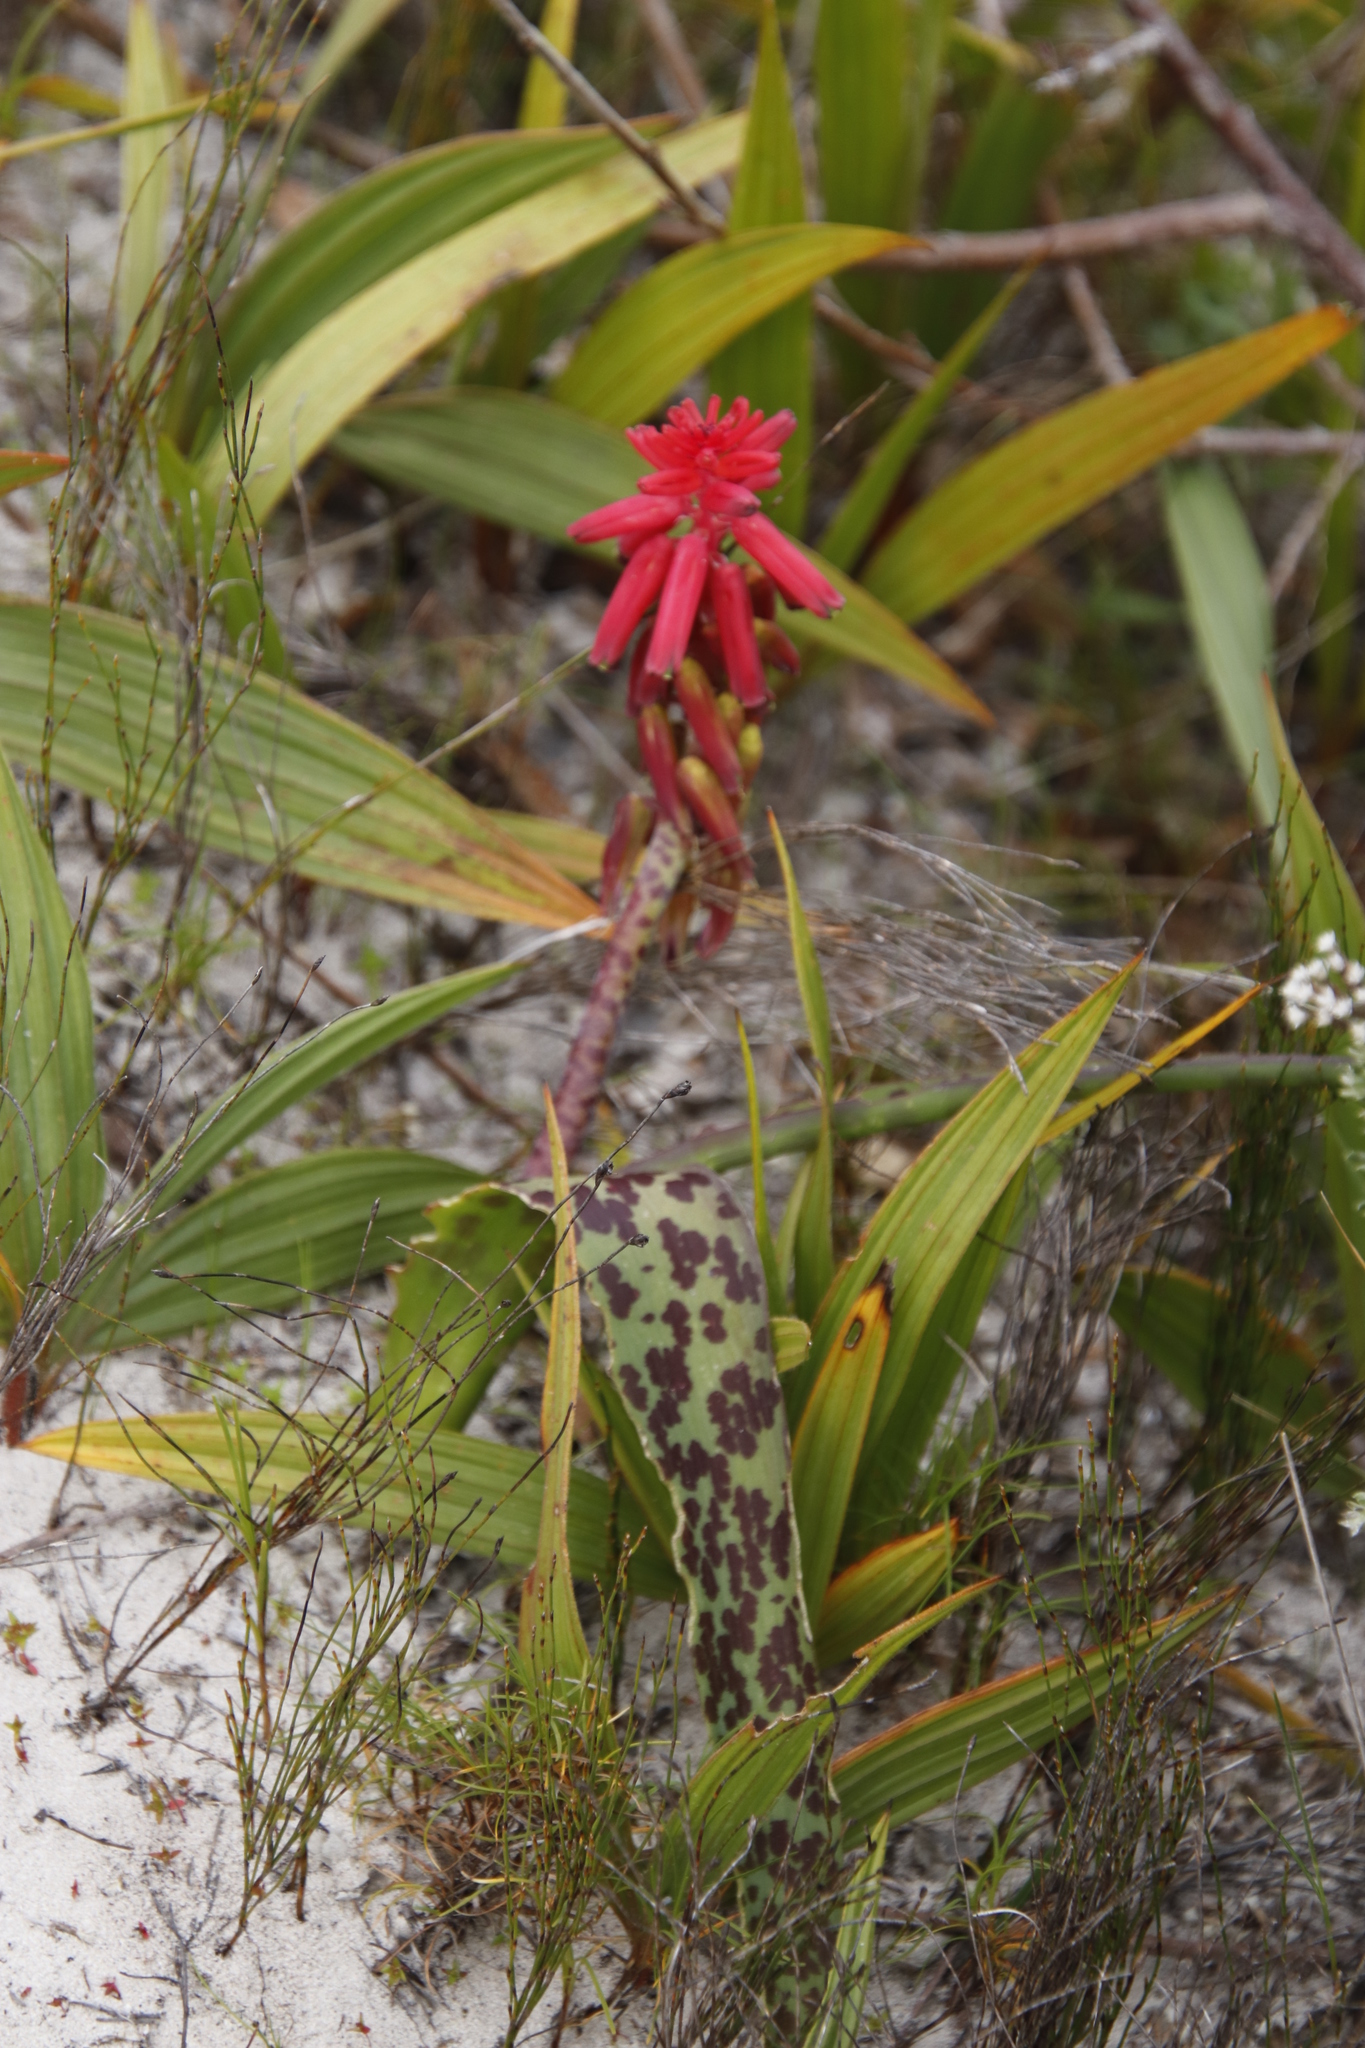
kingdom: Plantae
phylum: Tracheophyta
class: Liliopsida
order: Asparagales
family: Asparagaceae
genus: Lachenalia
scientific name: Lachenalia bulbifera
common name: Red lachenalia
